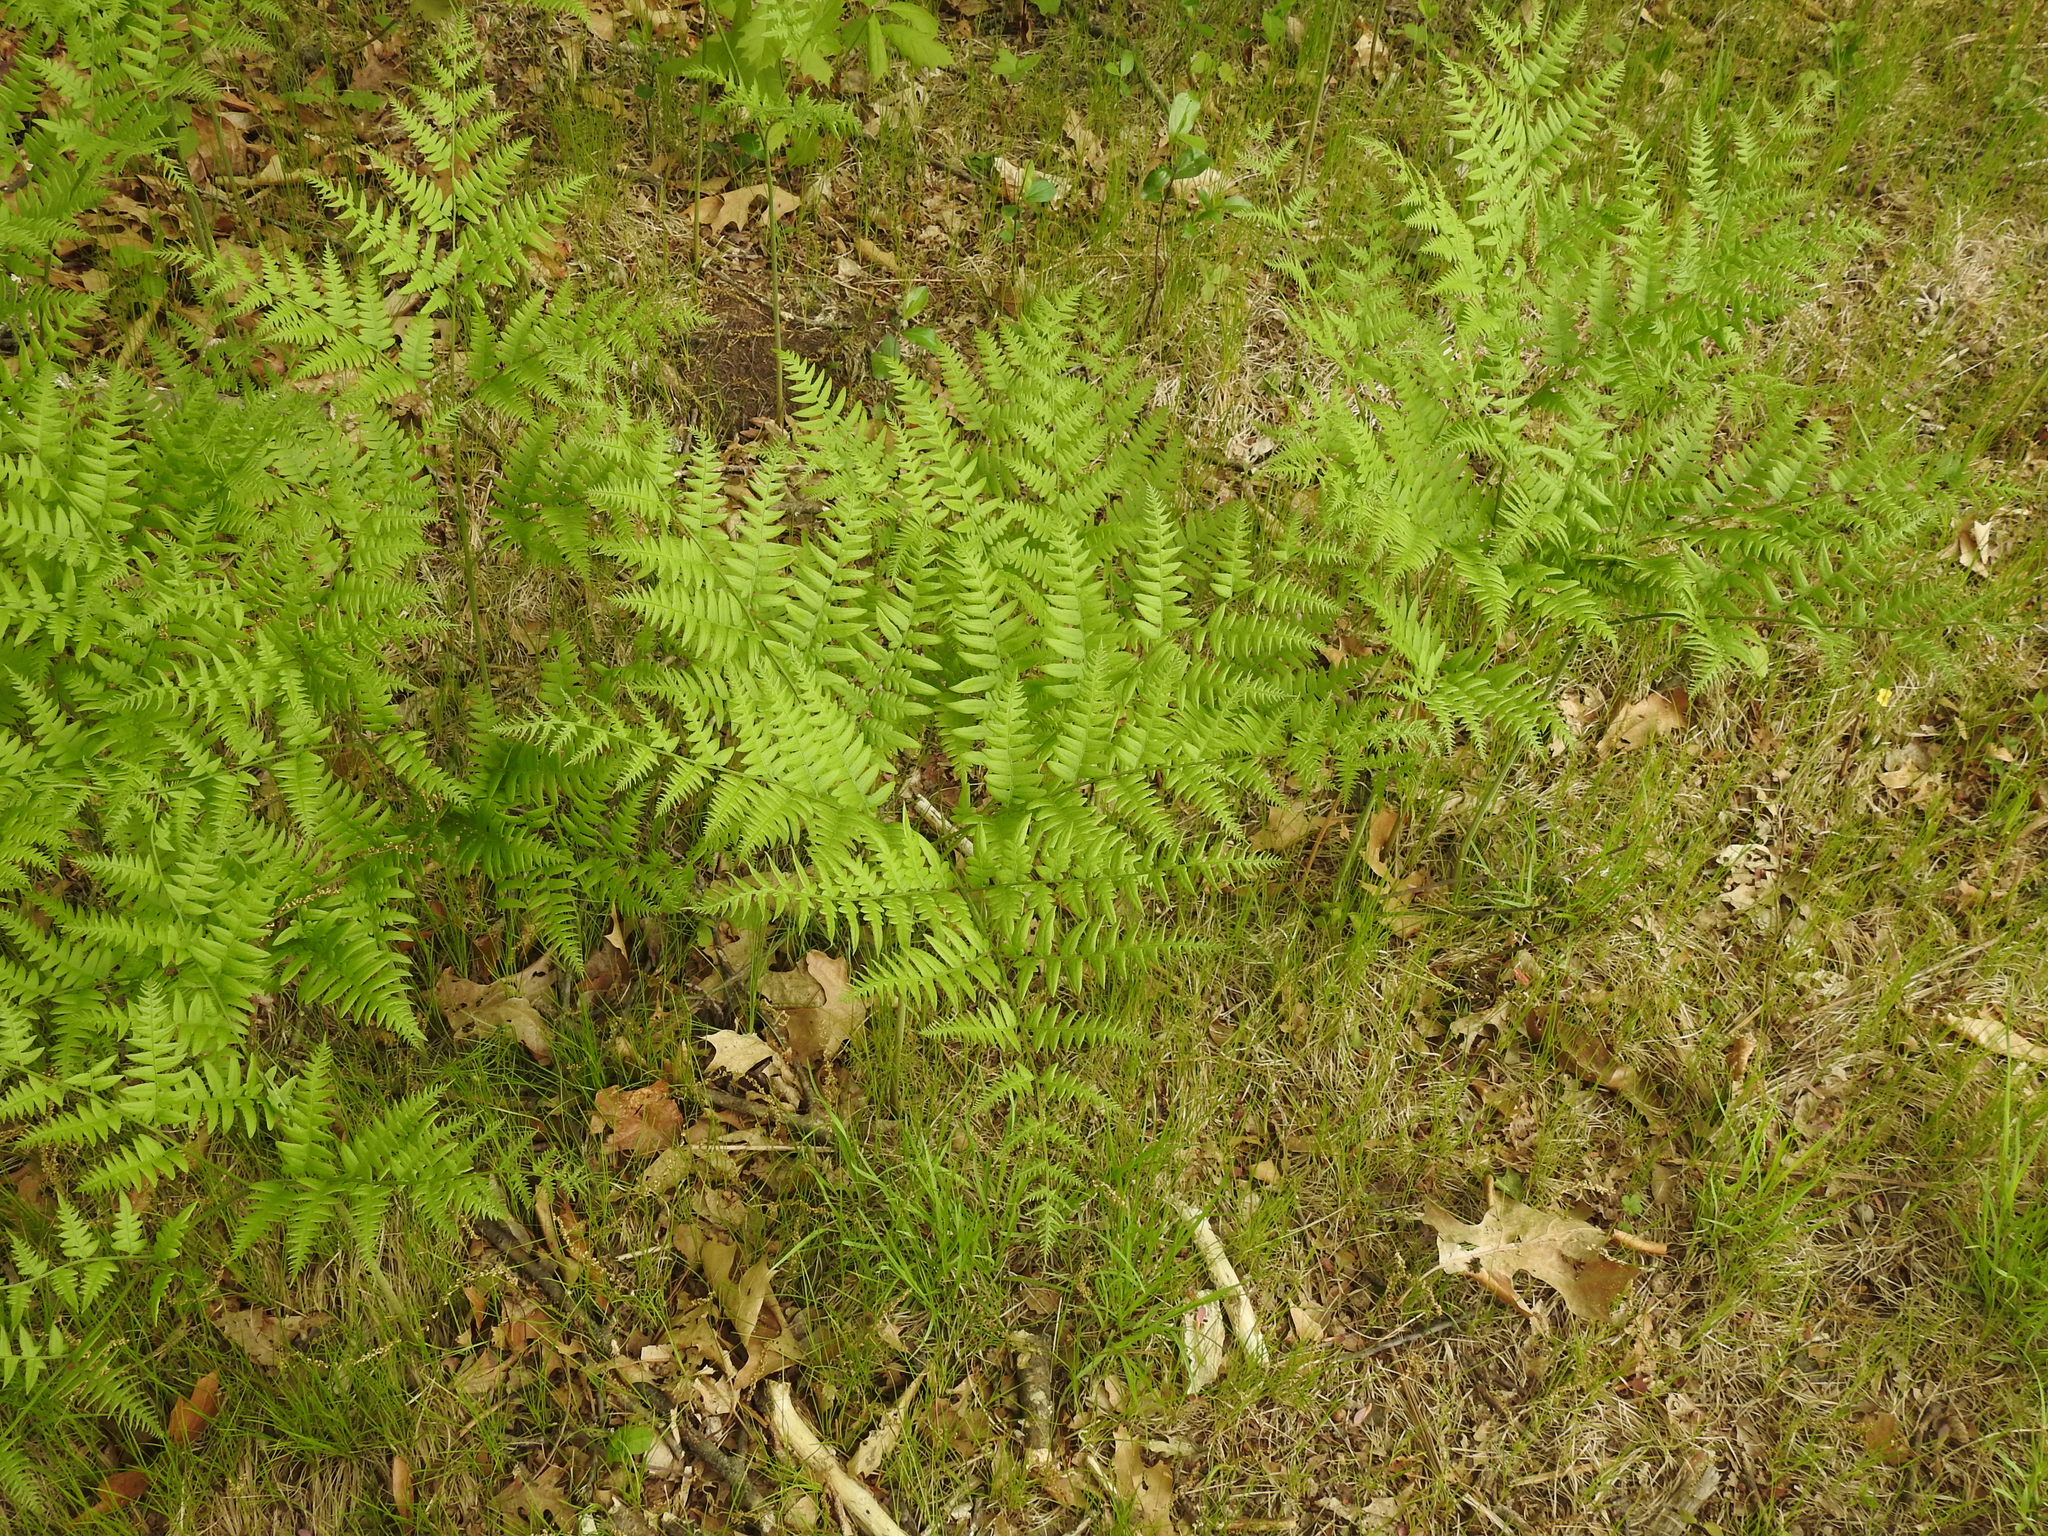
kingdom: Plantae
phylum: Tracheophyta
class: Polypodiopsida
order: Polypodiales
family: Dennstaedtiaceae
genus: Pteridium
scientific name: Pteridium aquilinum
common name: Bracken
